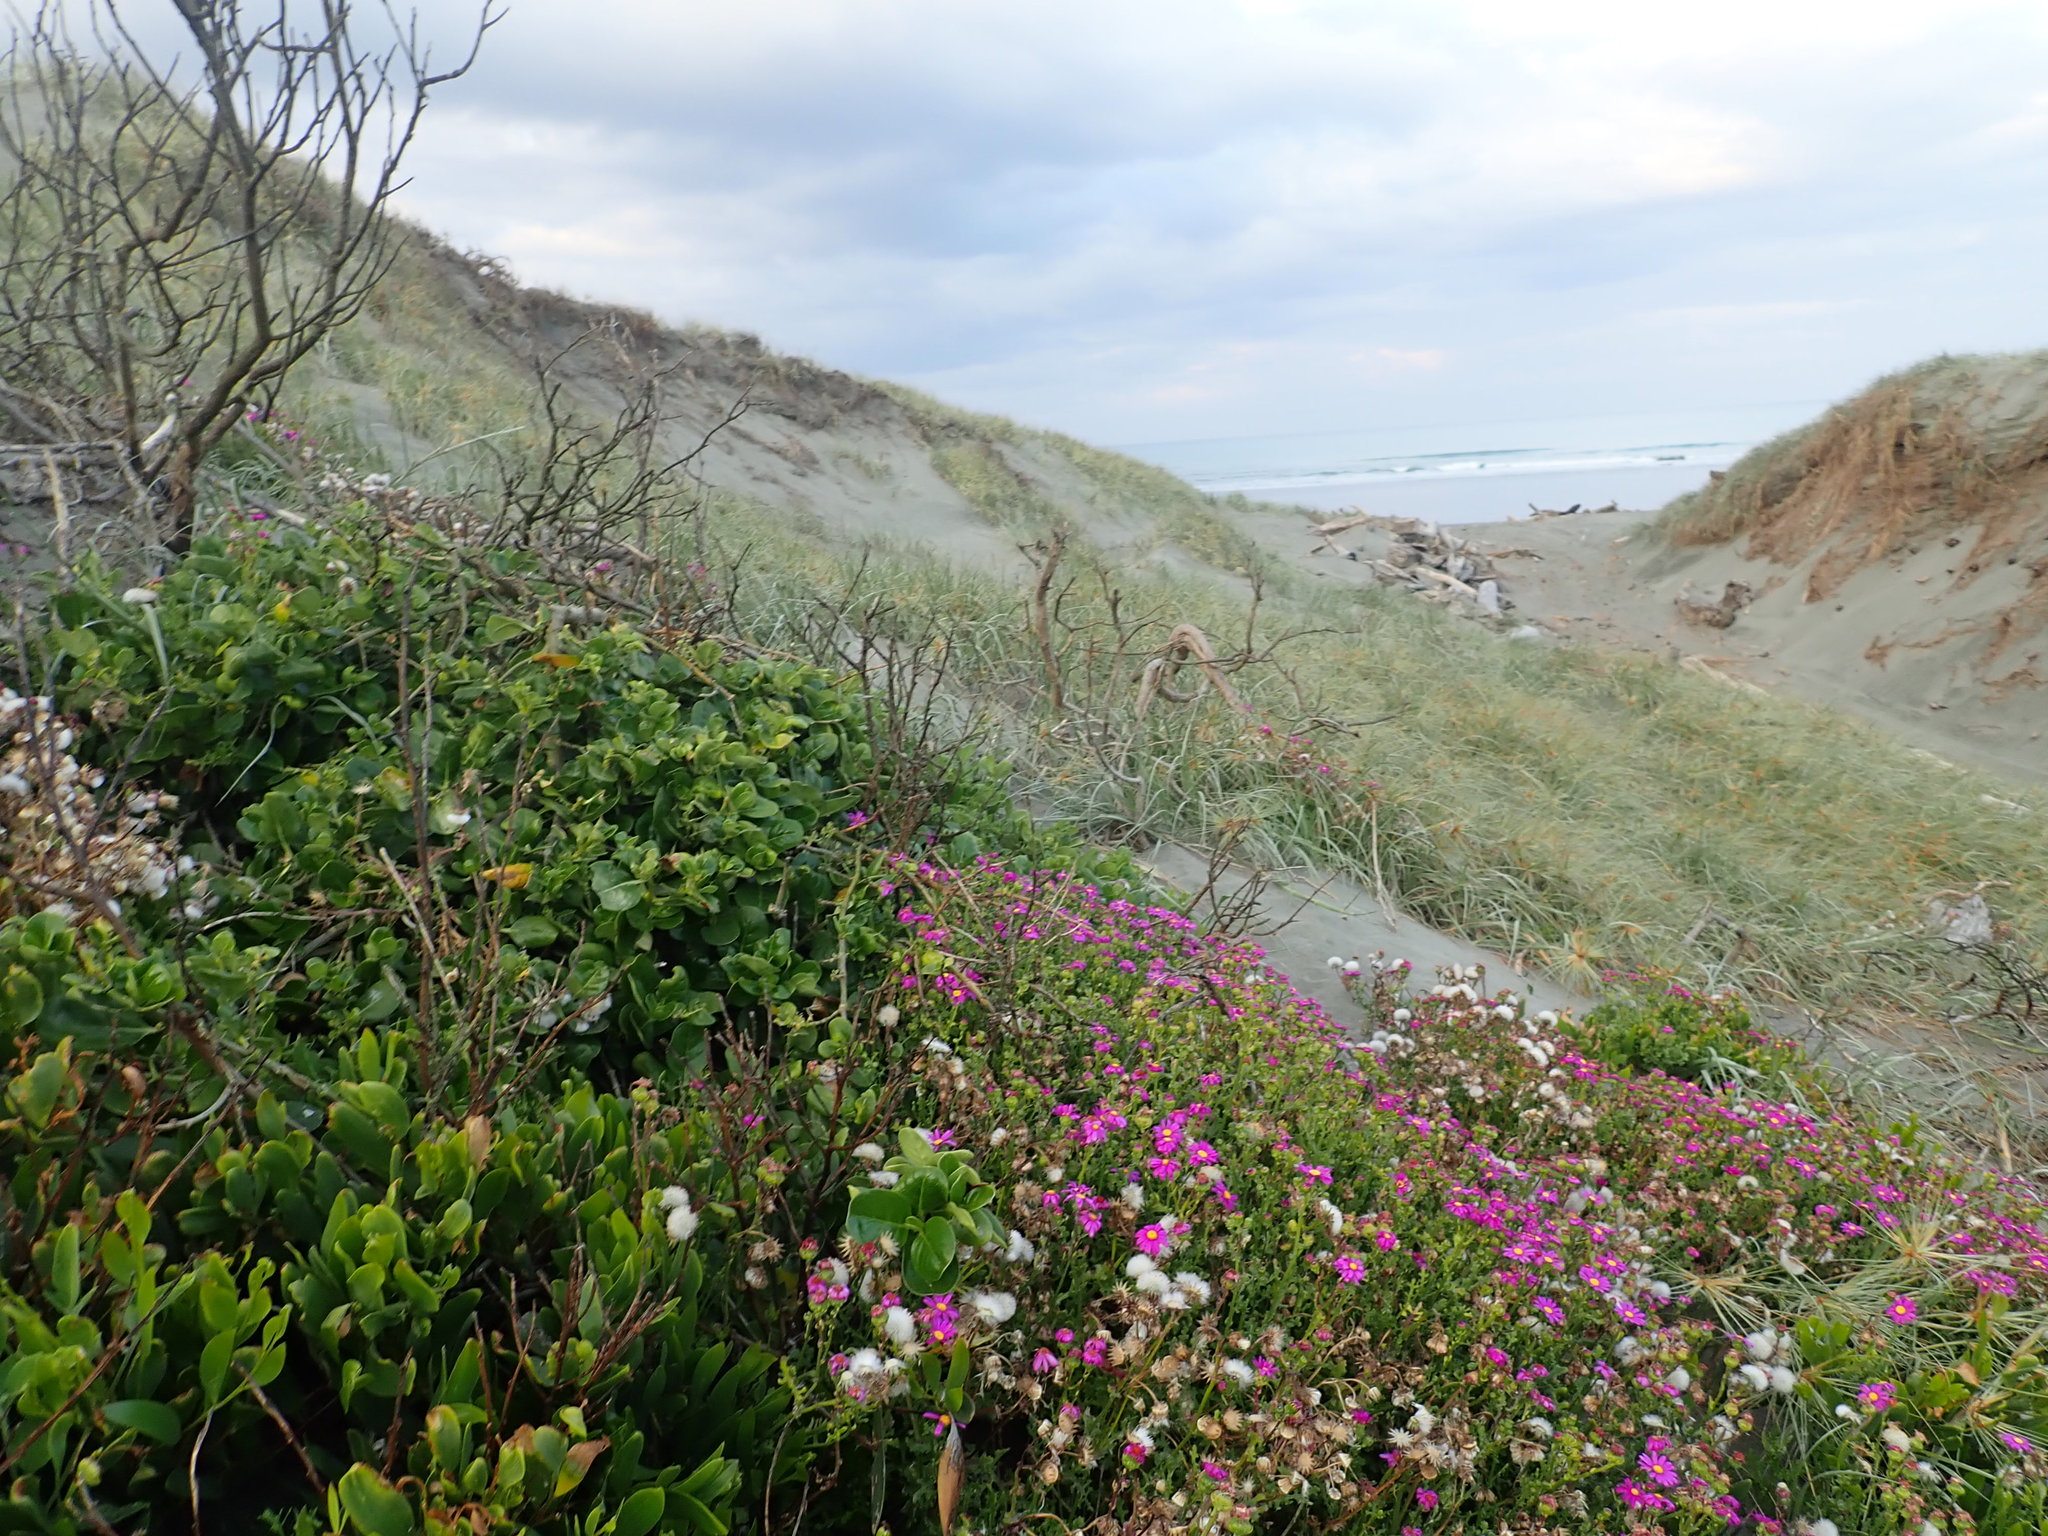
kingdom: Plantae
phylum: Tracheophyta
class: Magnoliopsida
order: Gentianales
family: Rubiaceae
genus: Coprosma
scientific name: Coprosma repens
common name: Tree bedstraw
